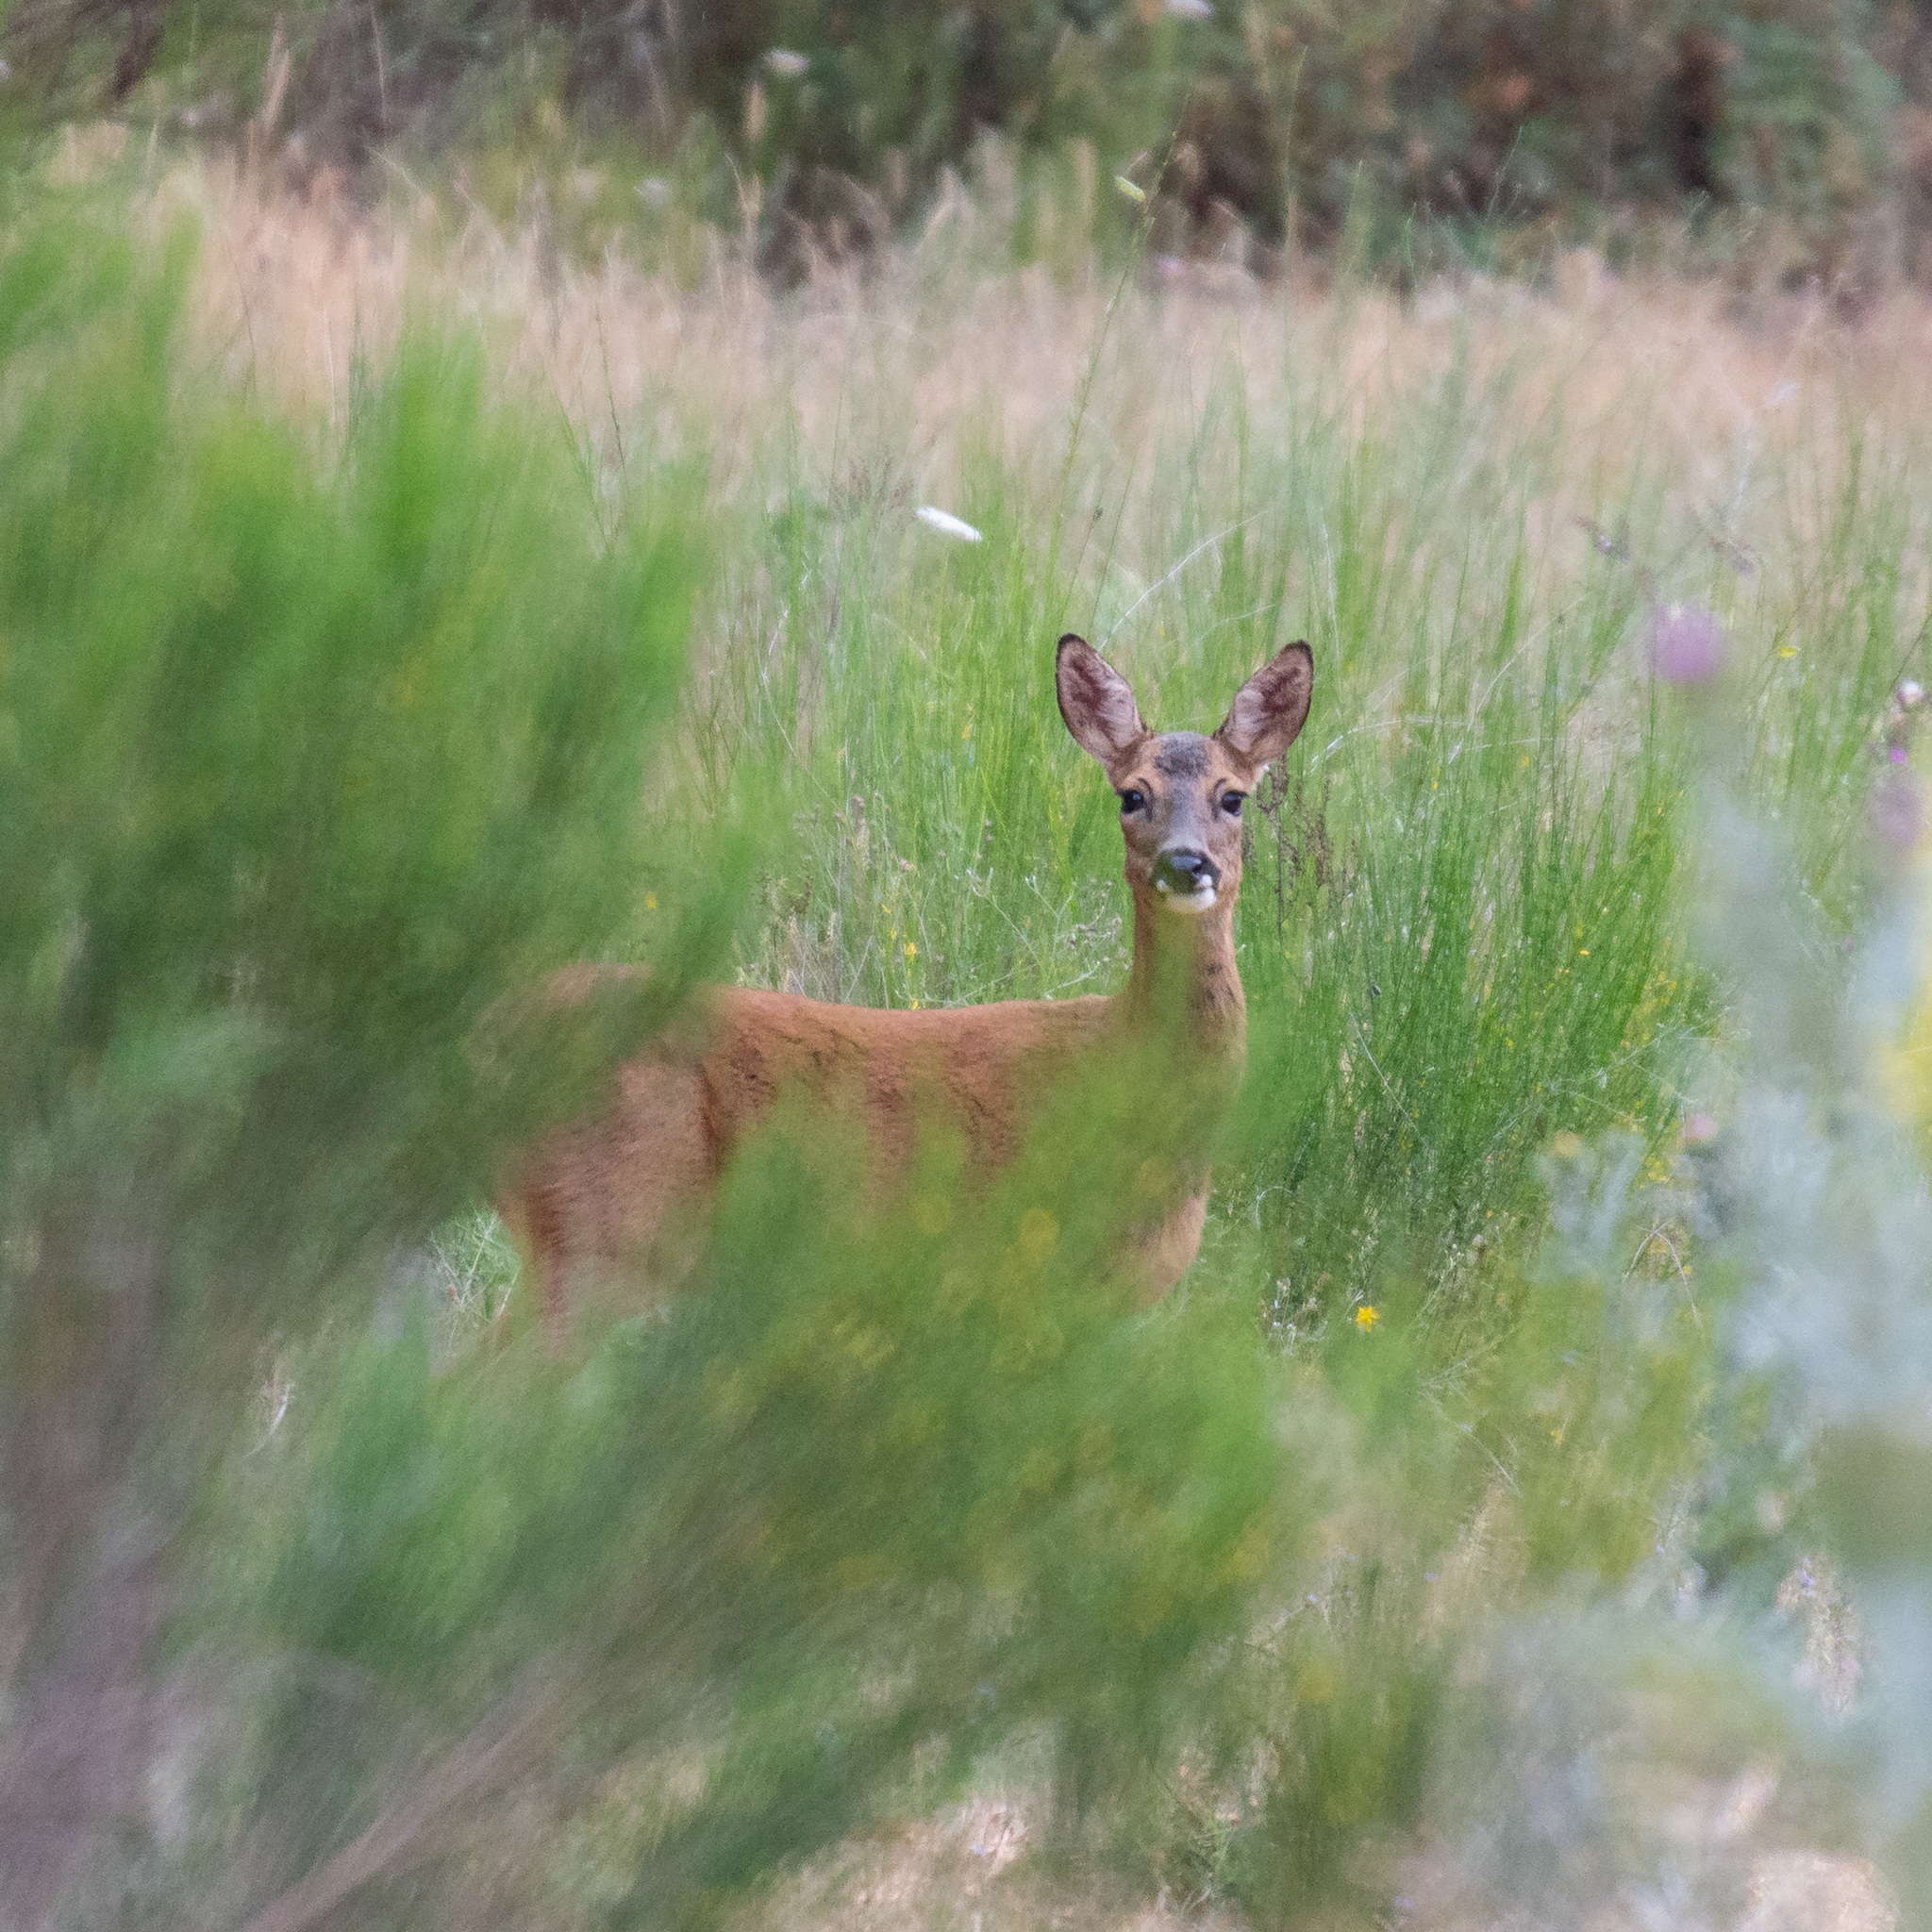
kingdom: Animalia
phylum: Chordata
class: Mammalia
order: Artiodactyla
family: Cervidae
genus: Capreolus
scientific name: Capreolus capreolus
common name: Western roe deer
